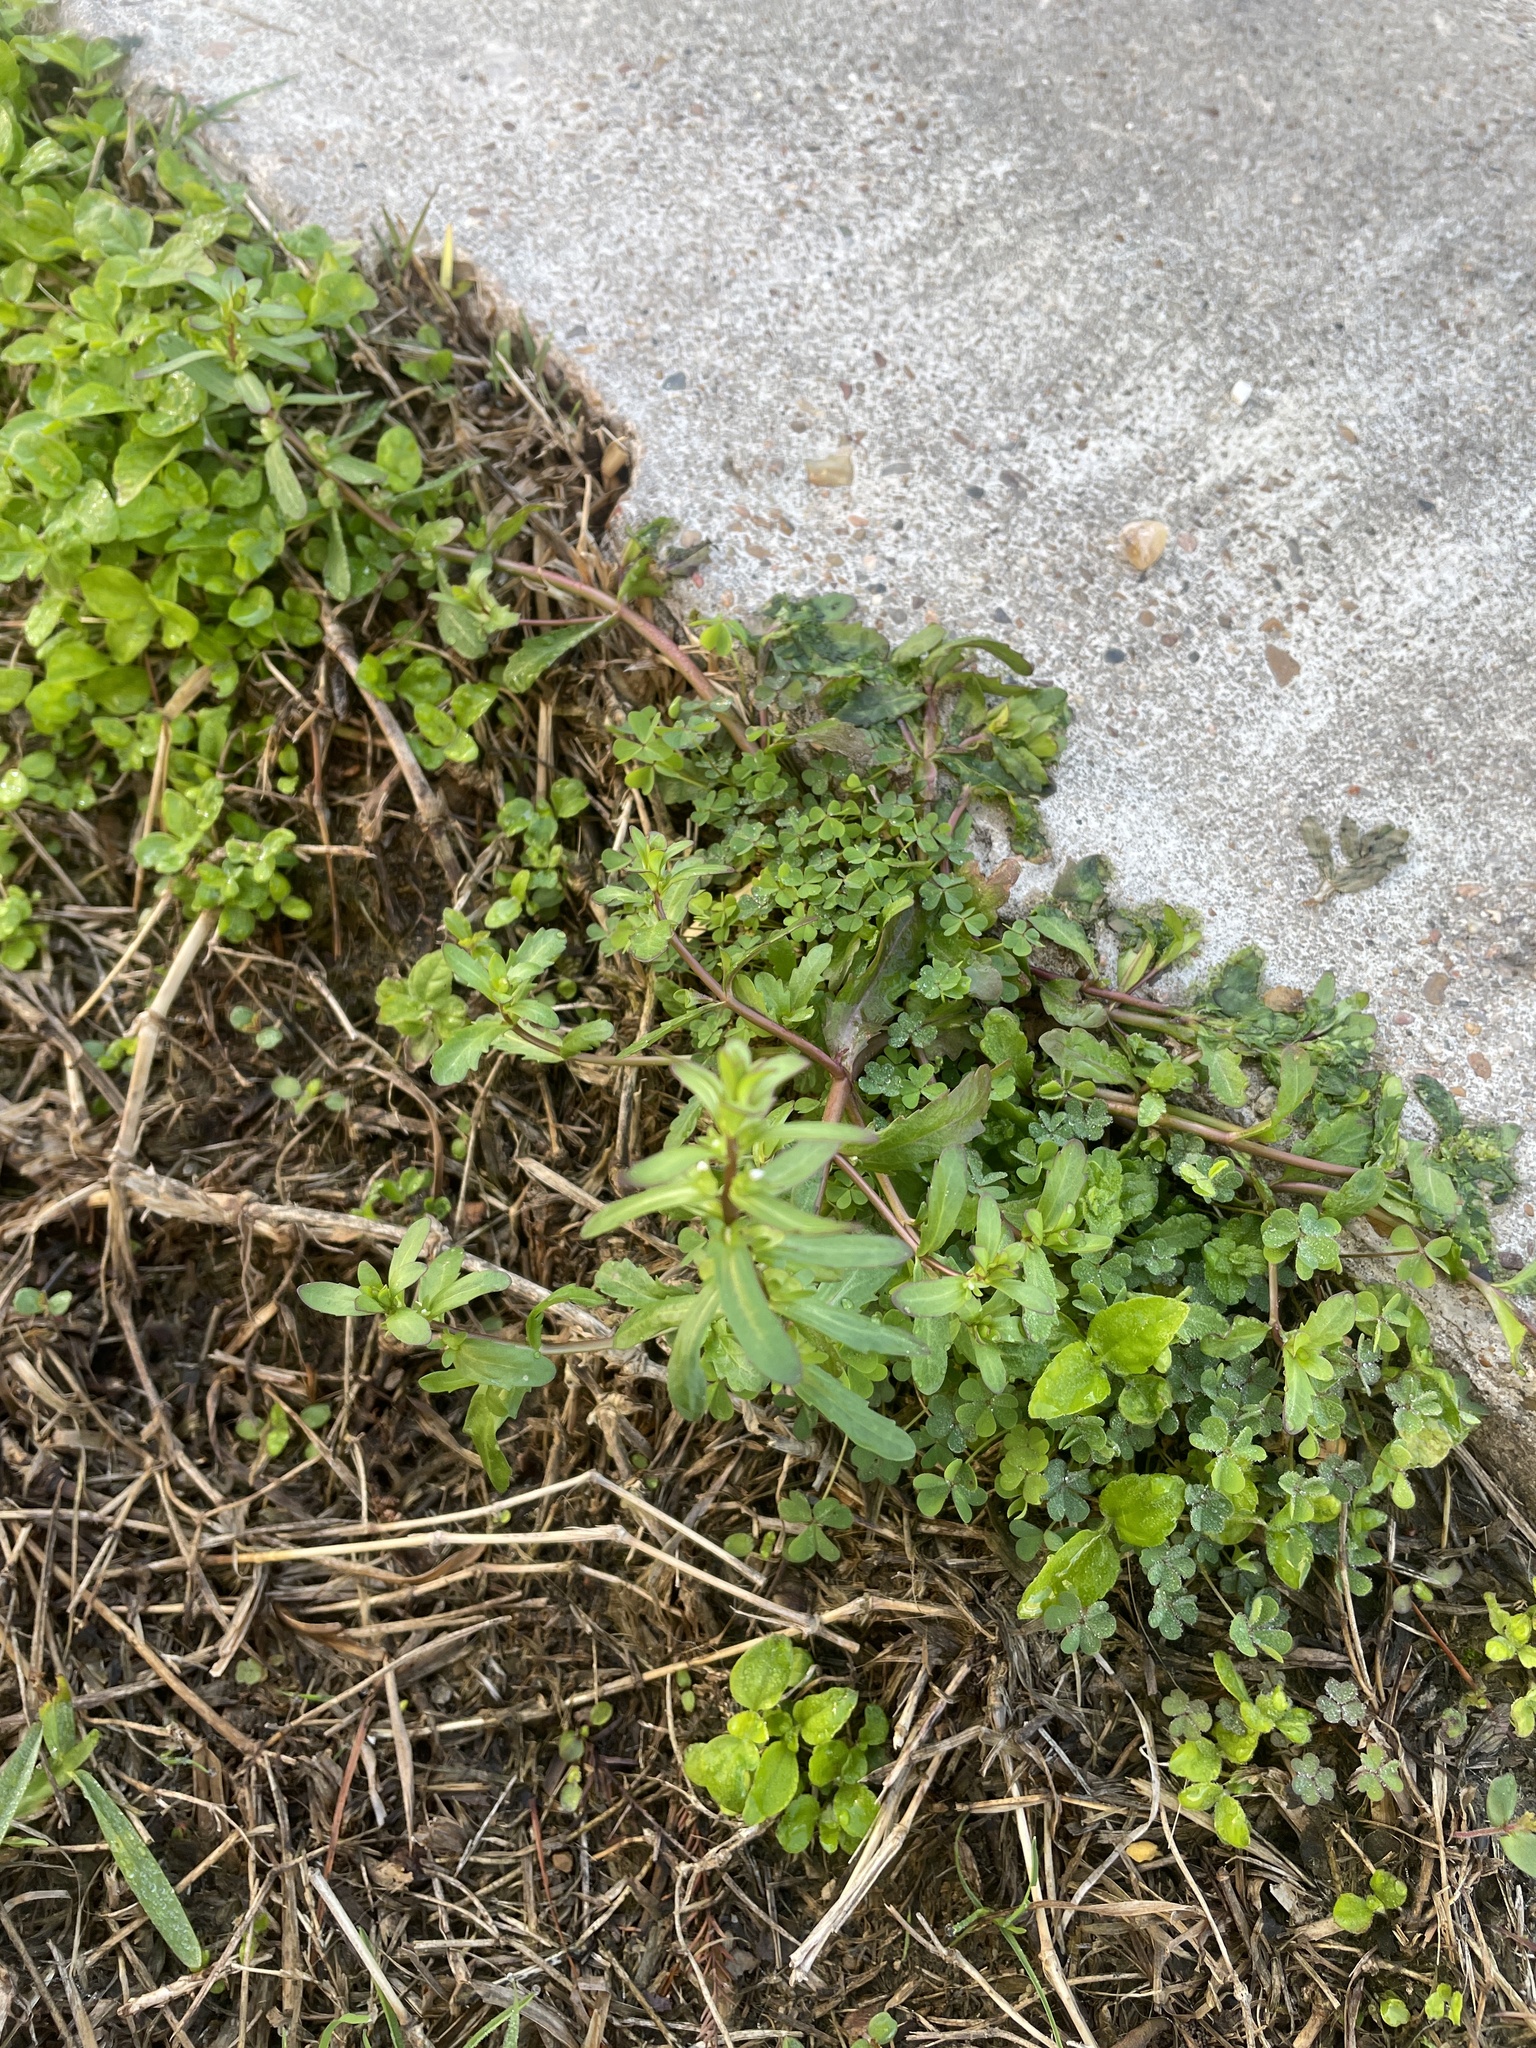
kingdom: Plantae
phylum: Tracheophyta
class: Magnoliopsida
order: Lamiales
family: Plantaginaceae
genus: Veronica
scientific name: Veronica peregrina
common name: Neckweed
